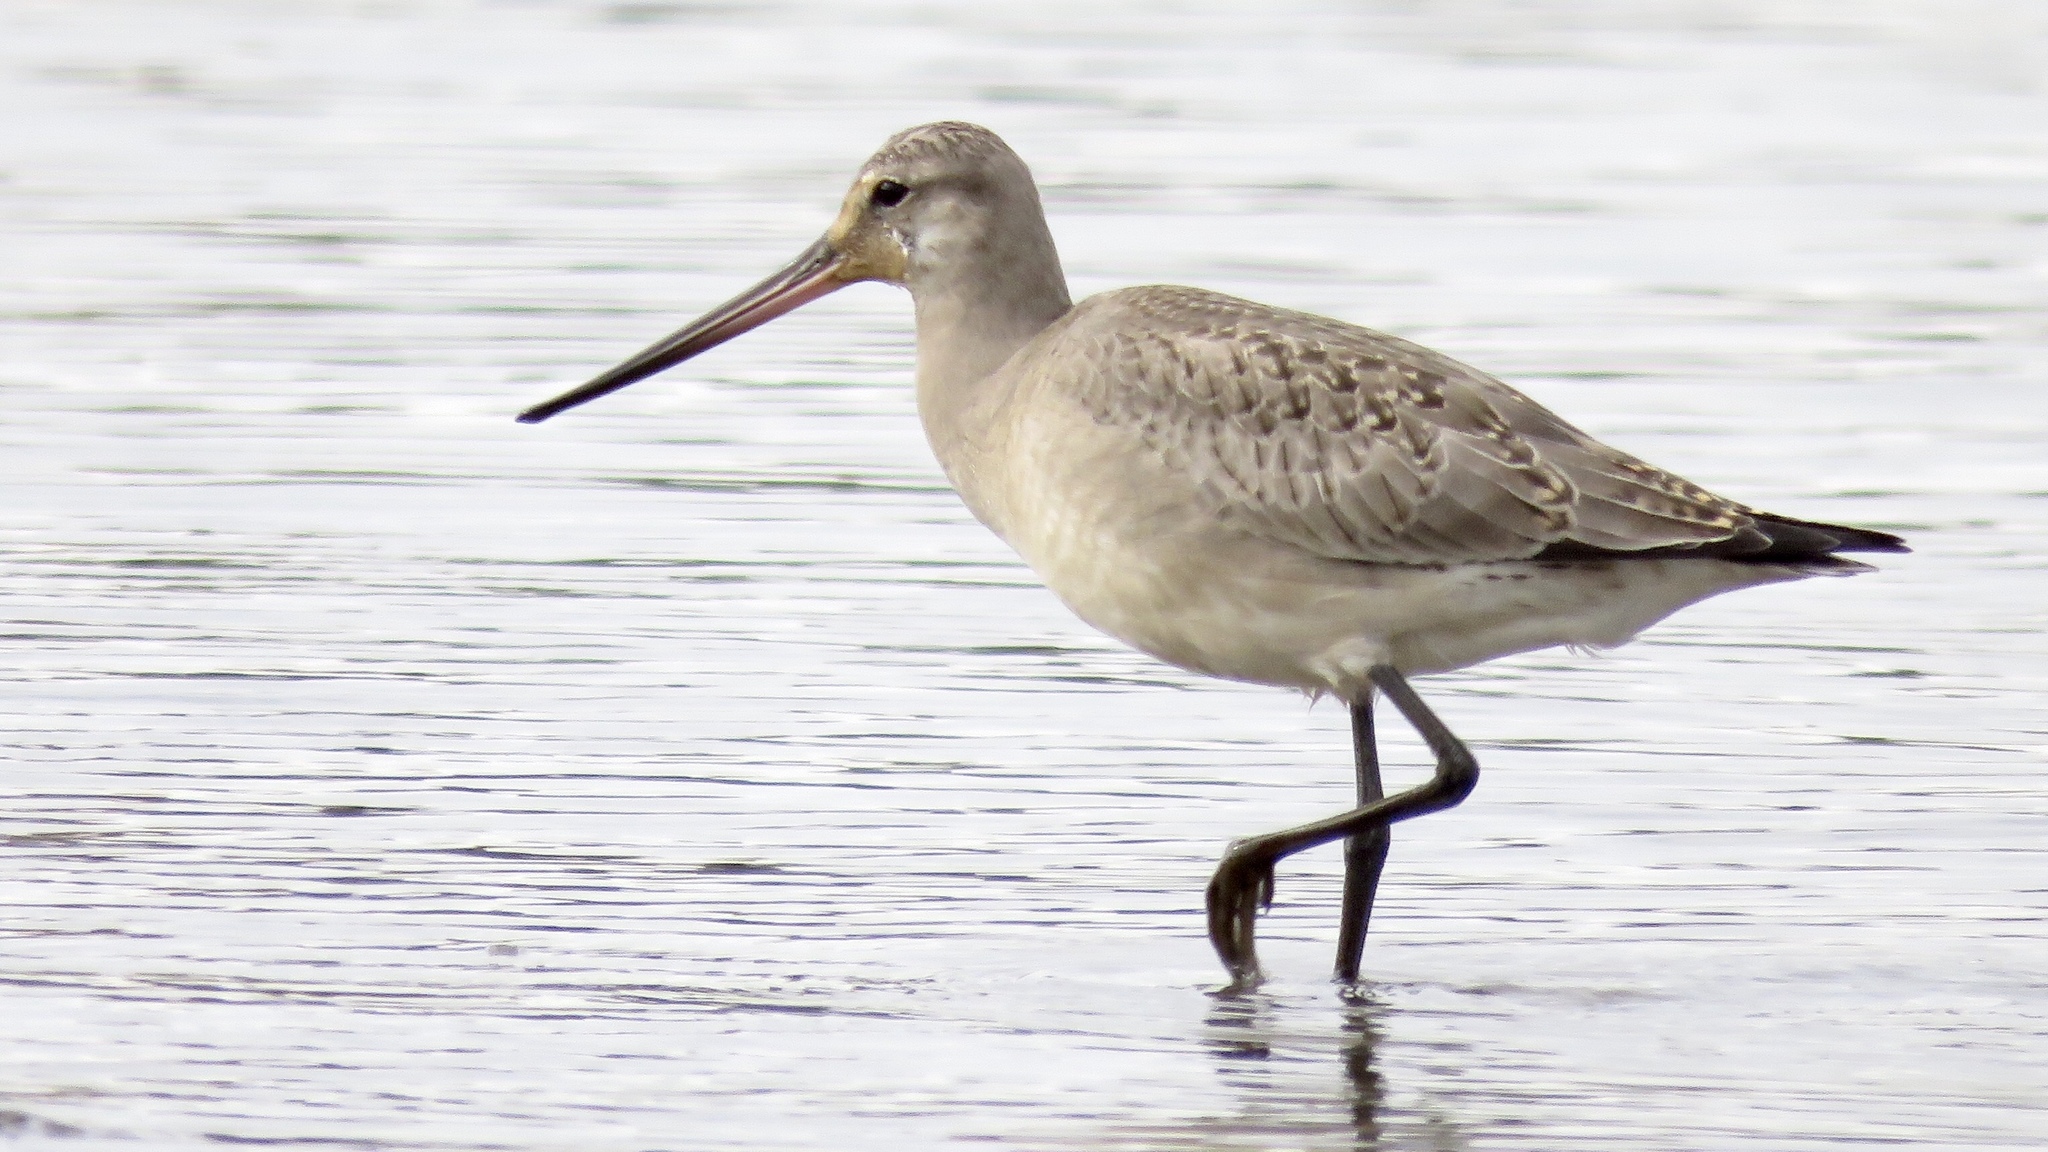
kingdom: Animalia
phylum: Chordata
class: Aves
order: Charadriiformes
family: Scolopacidae
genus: Limosa
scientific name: Limosa haemastica
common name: Hudsonian godwit
